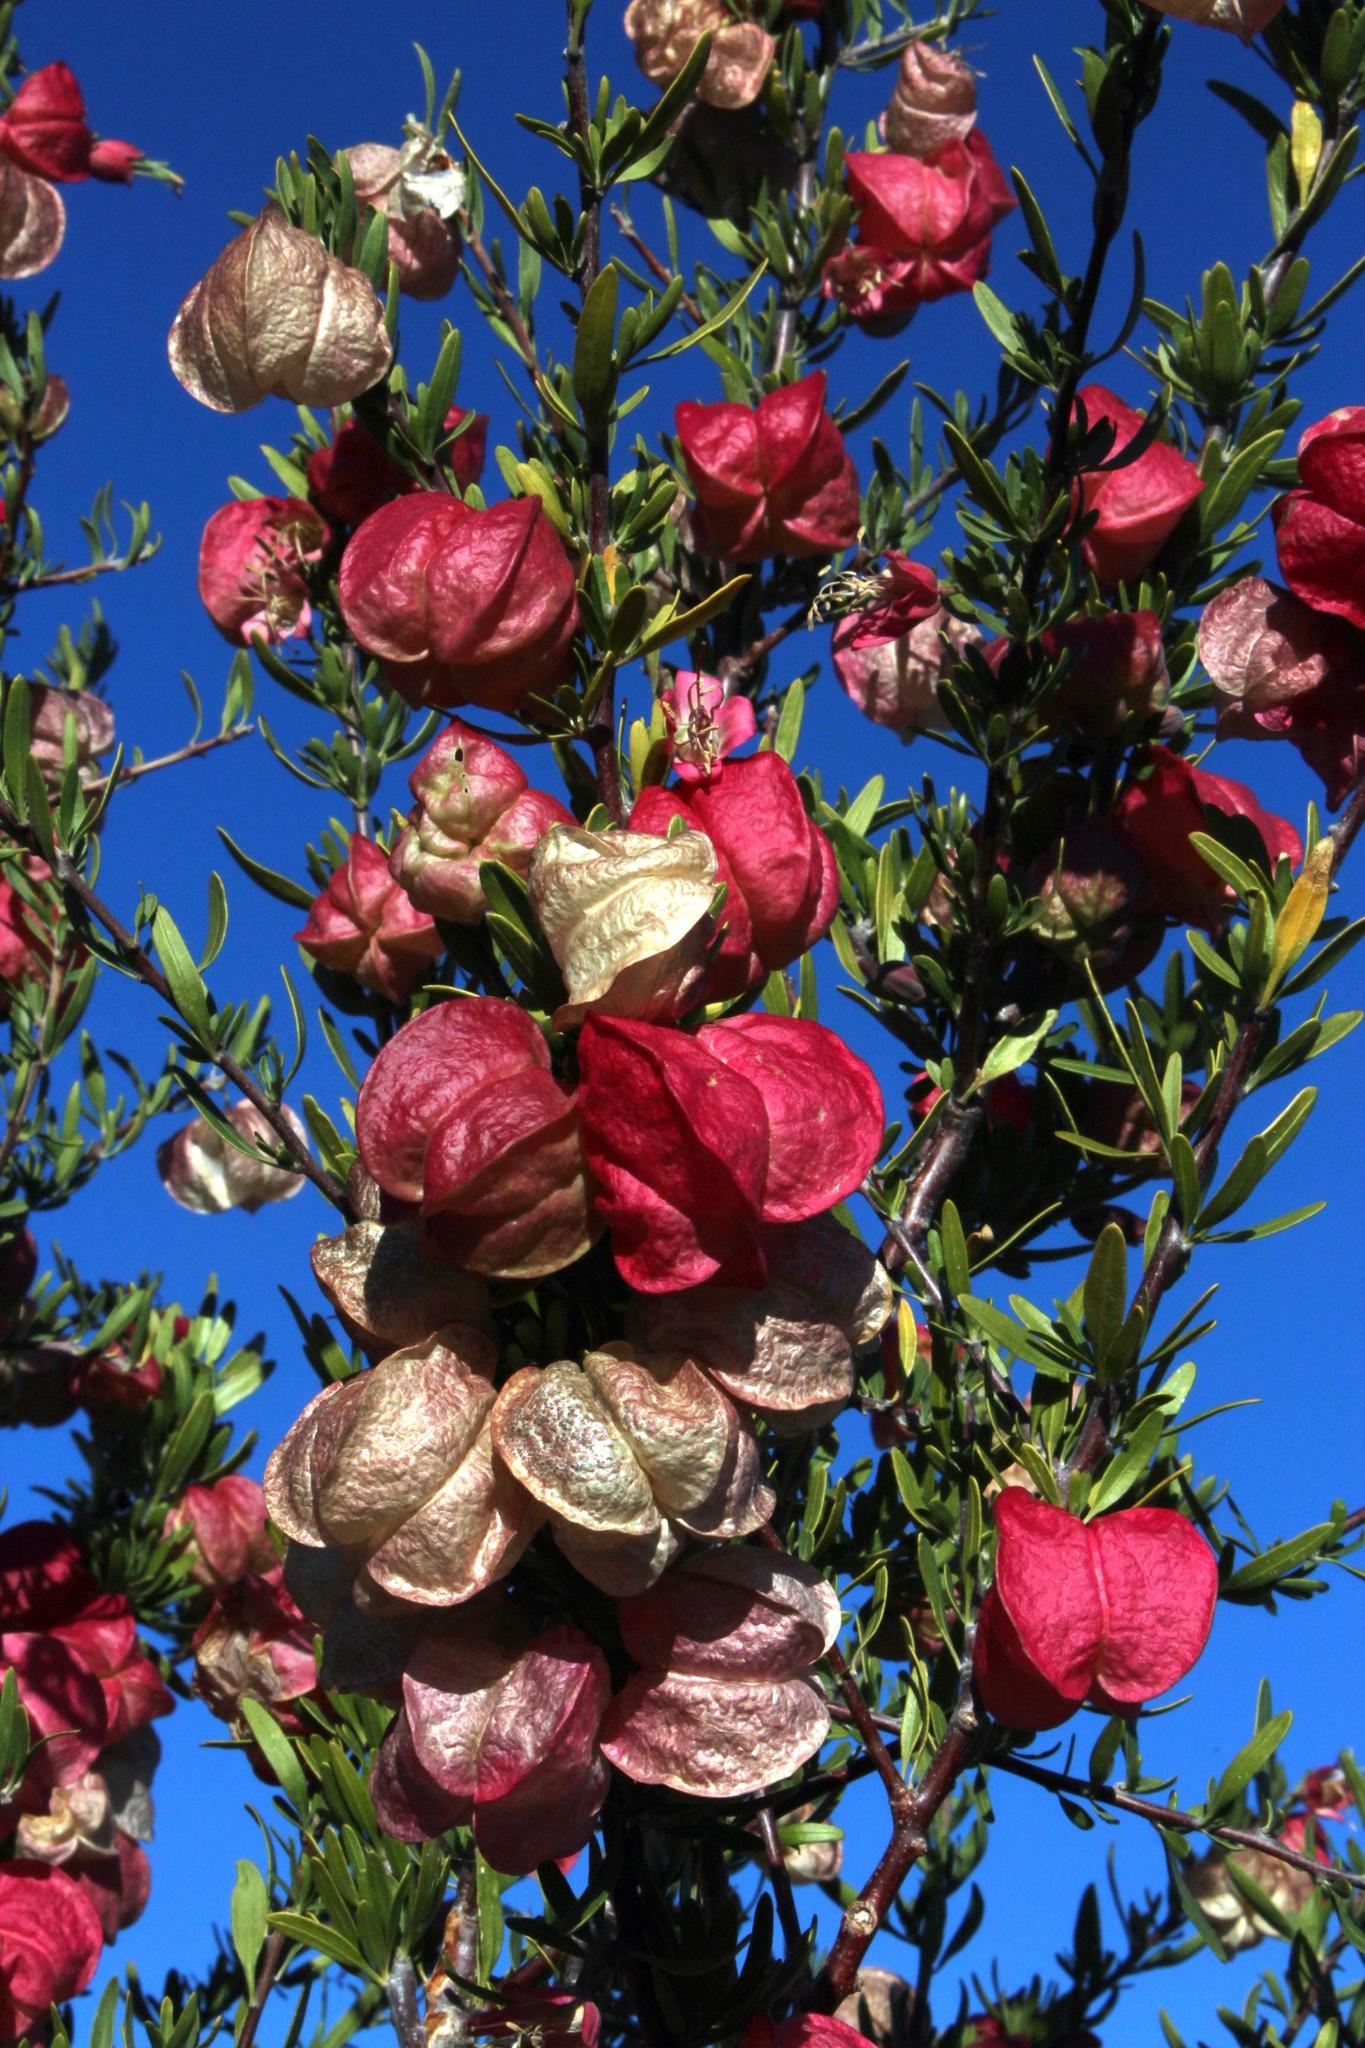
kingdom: Plantae
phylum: Tracheophyta
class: Magnoliopsida
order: Sapindales
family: Meliaceae
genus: Nymania
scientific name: Nymania capensis
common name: Chinese lantern tree
